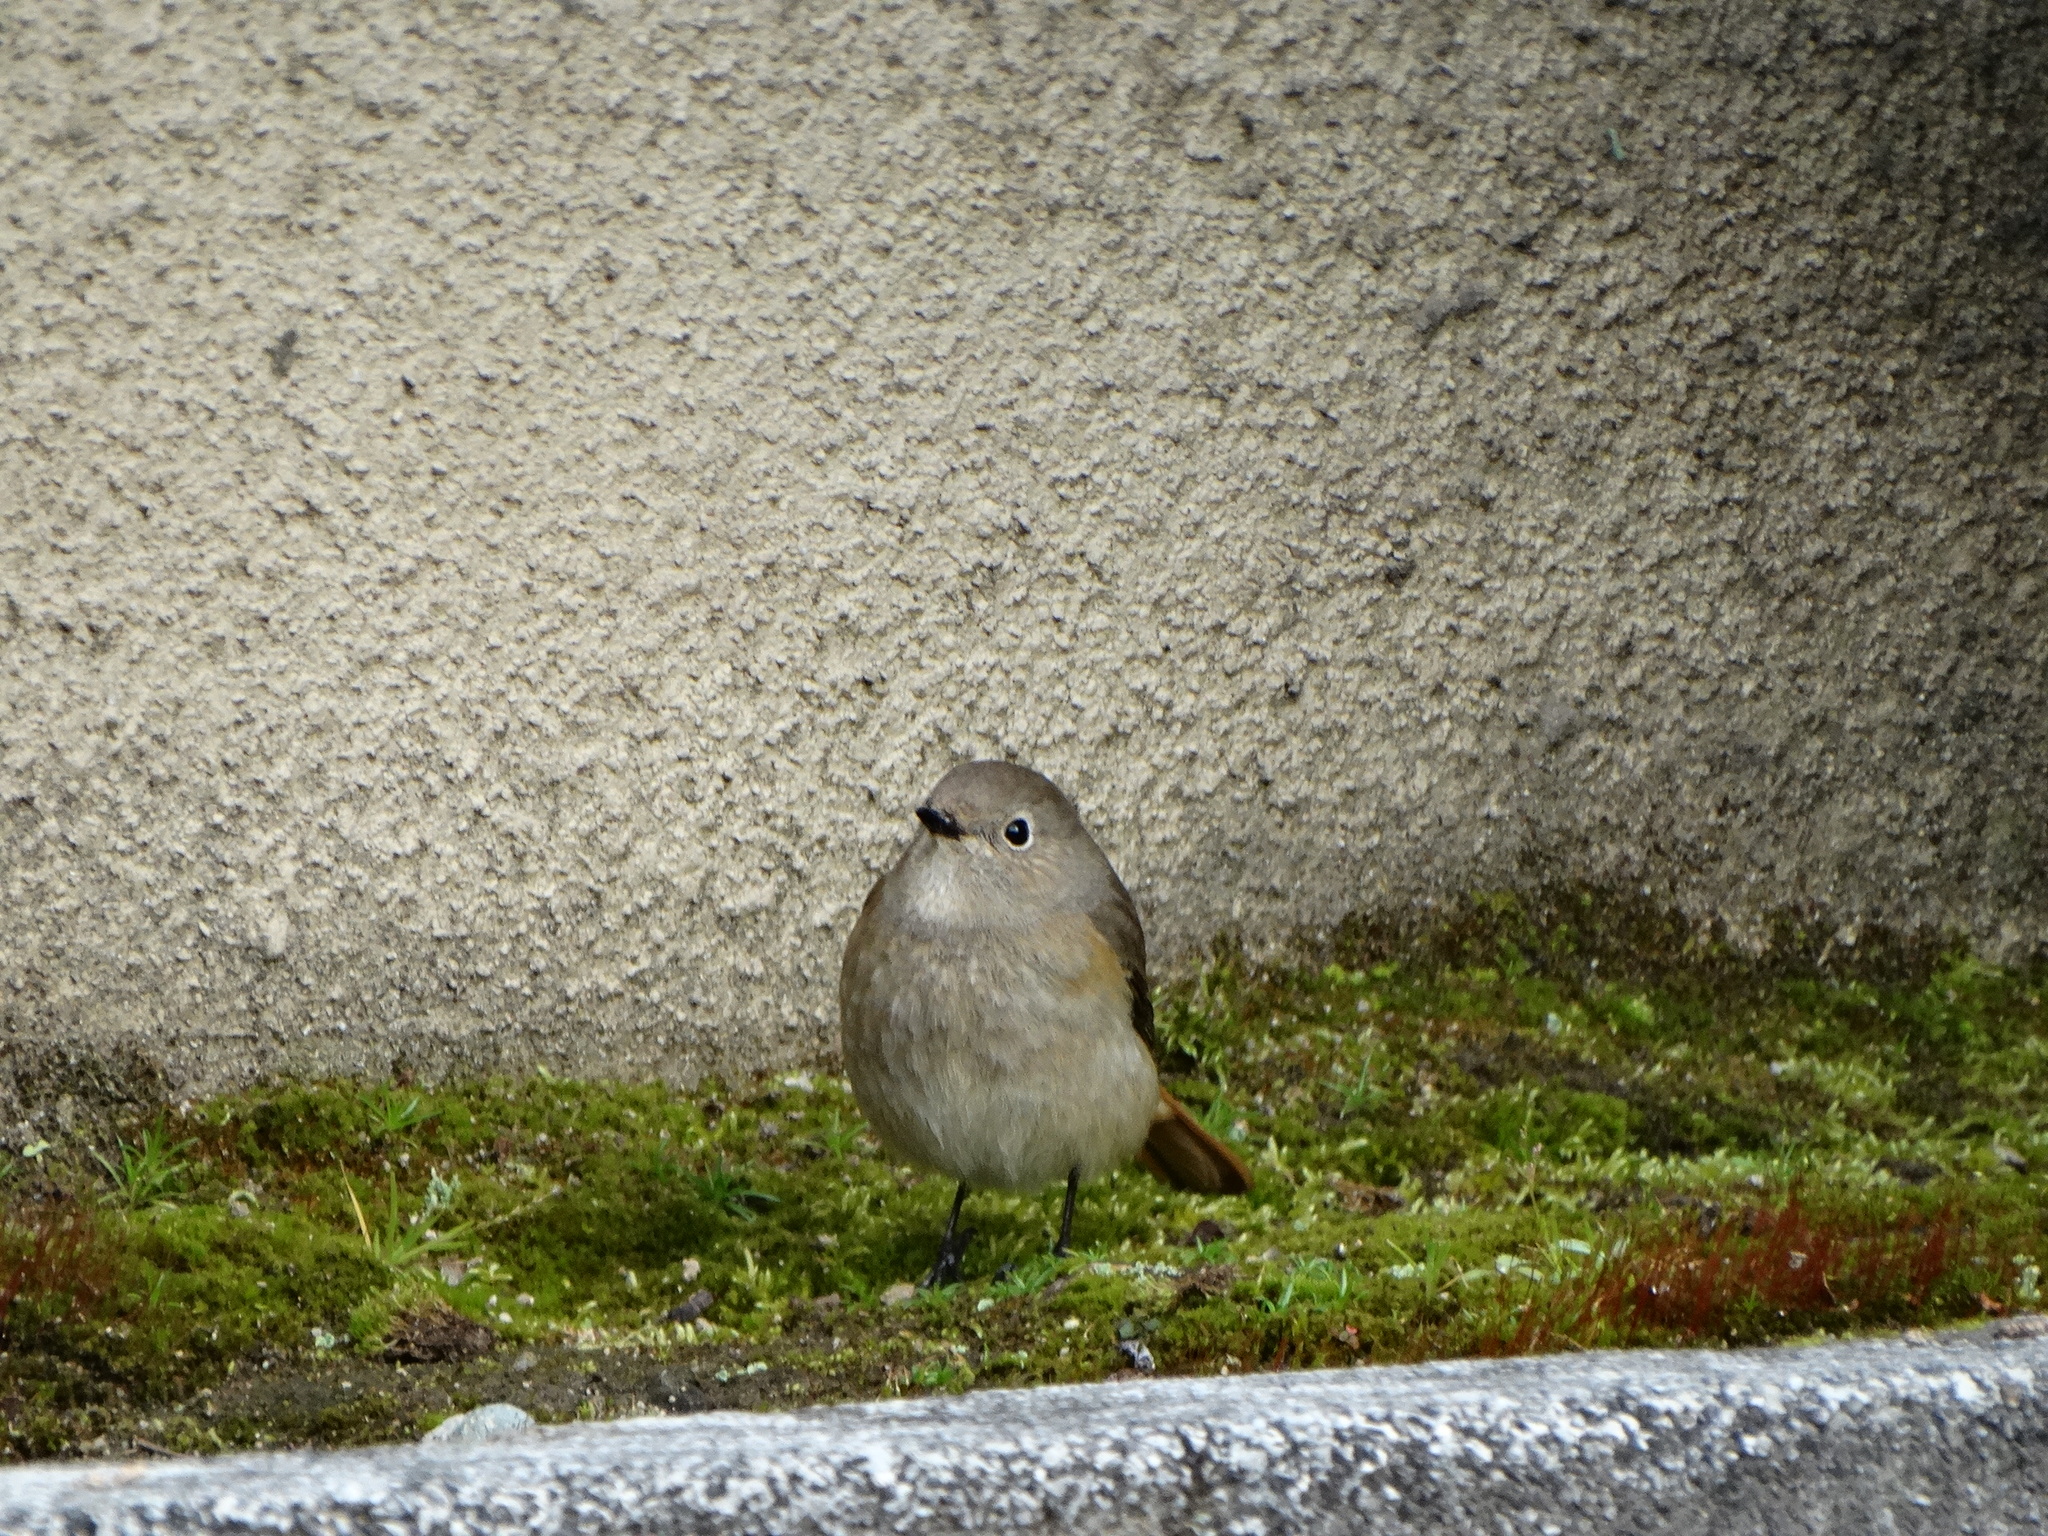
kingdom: Animalia
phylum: Chordata
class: Aves
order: Passeriformes
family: Muscicapidae
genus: Tarsiger
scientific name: Tarsiger cyanurus
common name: Red-flanked bluetail
